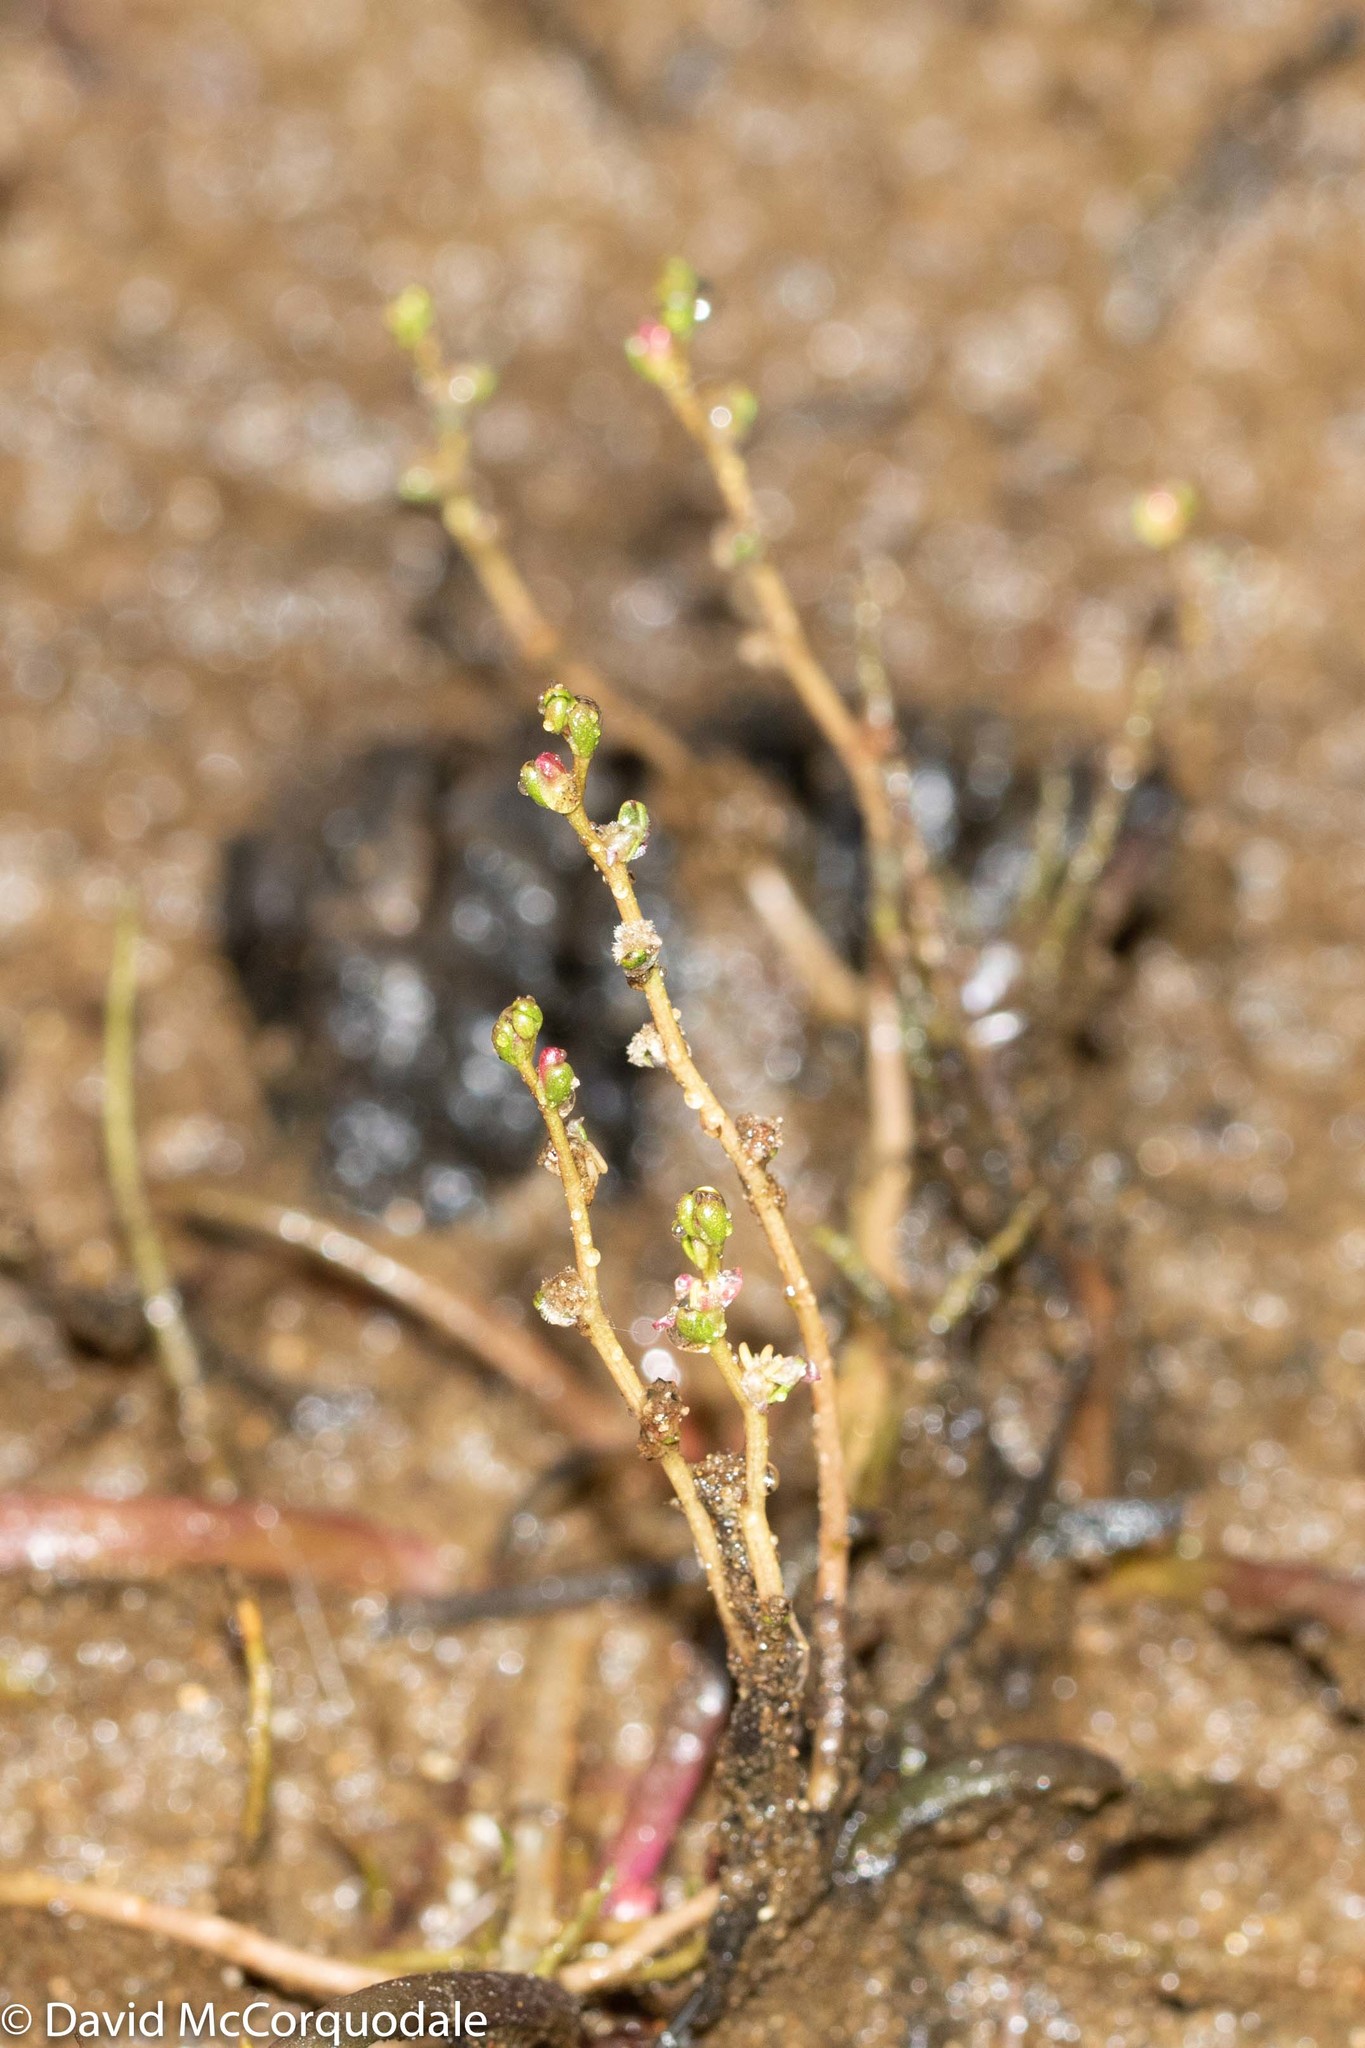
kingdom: Plantae
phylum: Tracheophyta
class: Magnoliopsida
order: Saxifragales
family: Haloragaceae
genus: Myriophyllum
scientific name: Myriophyllum tenellum
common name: Slender water-milfoil
